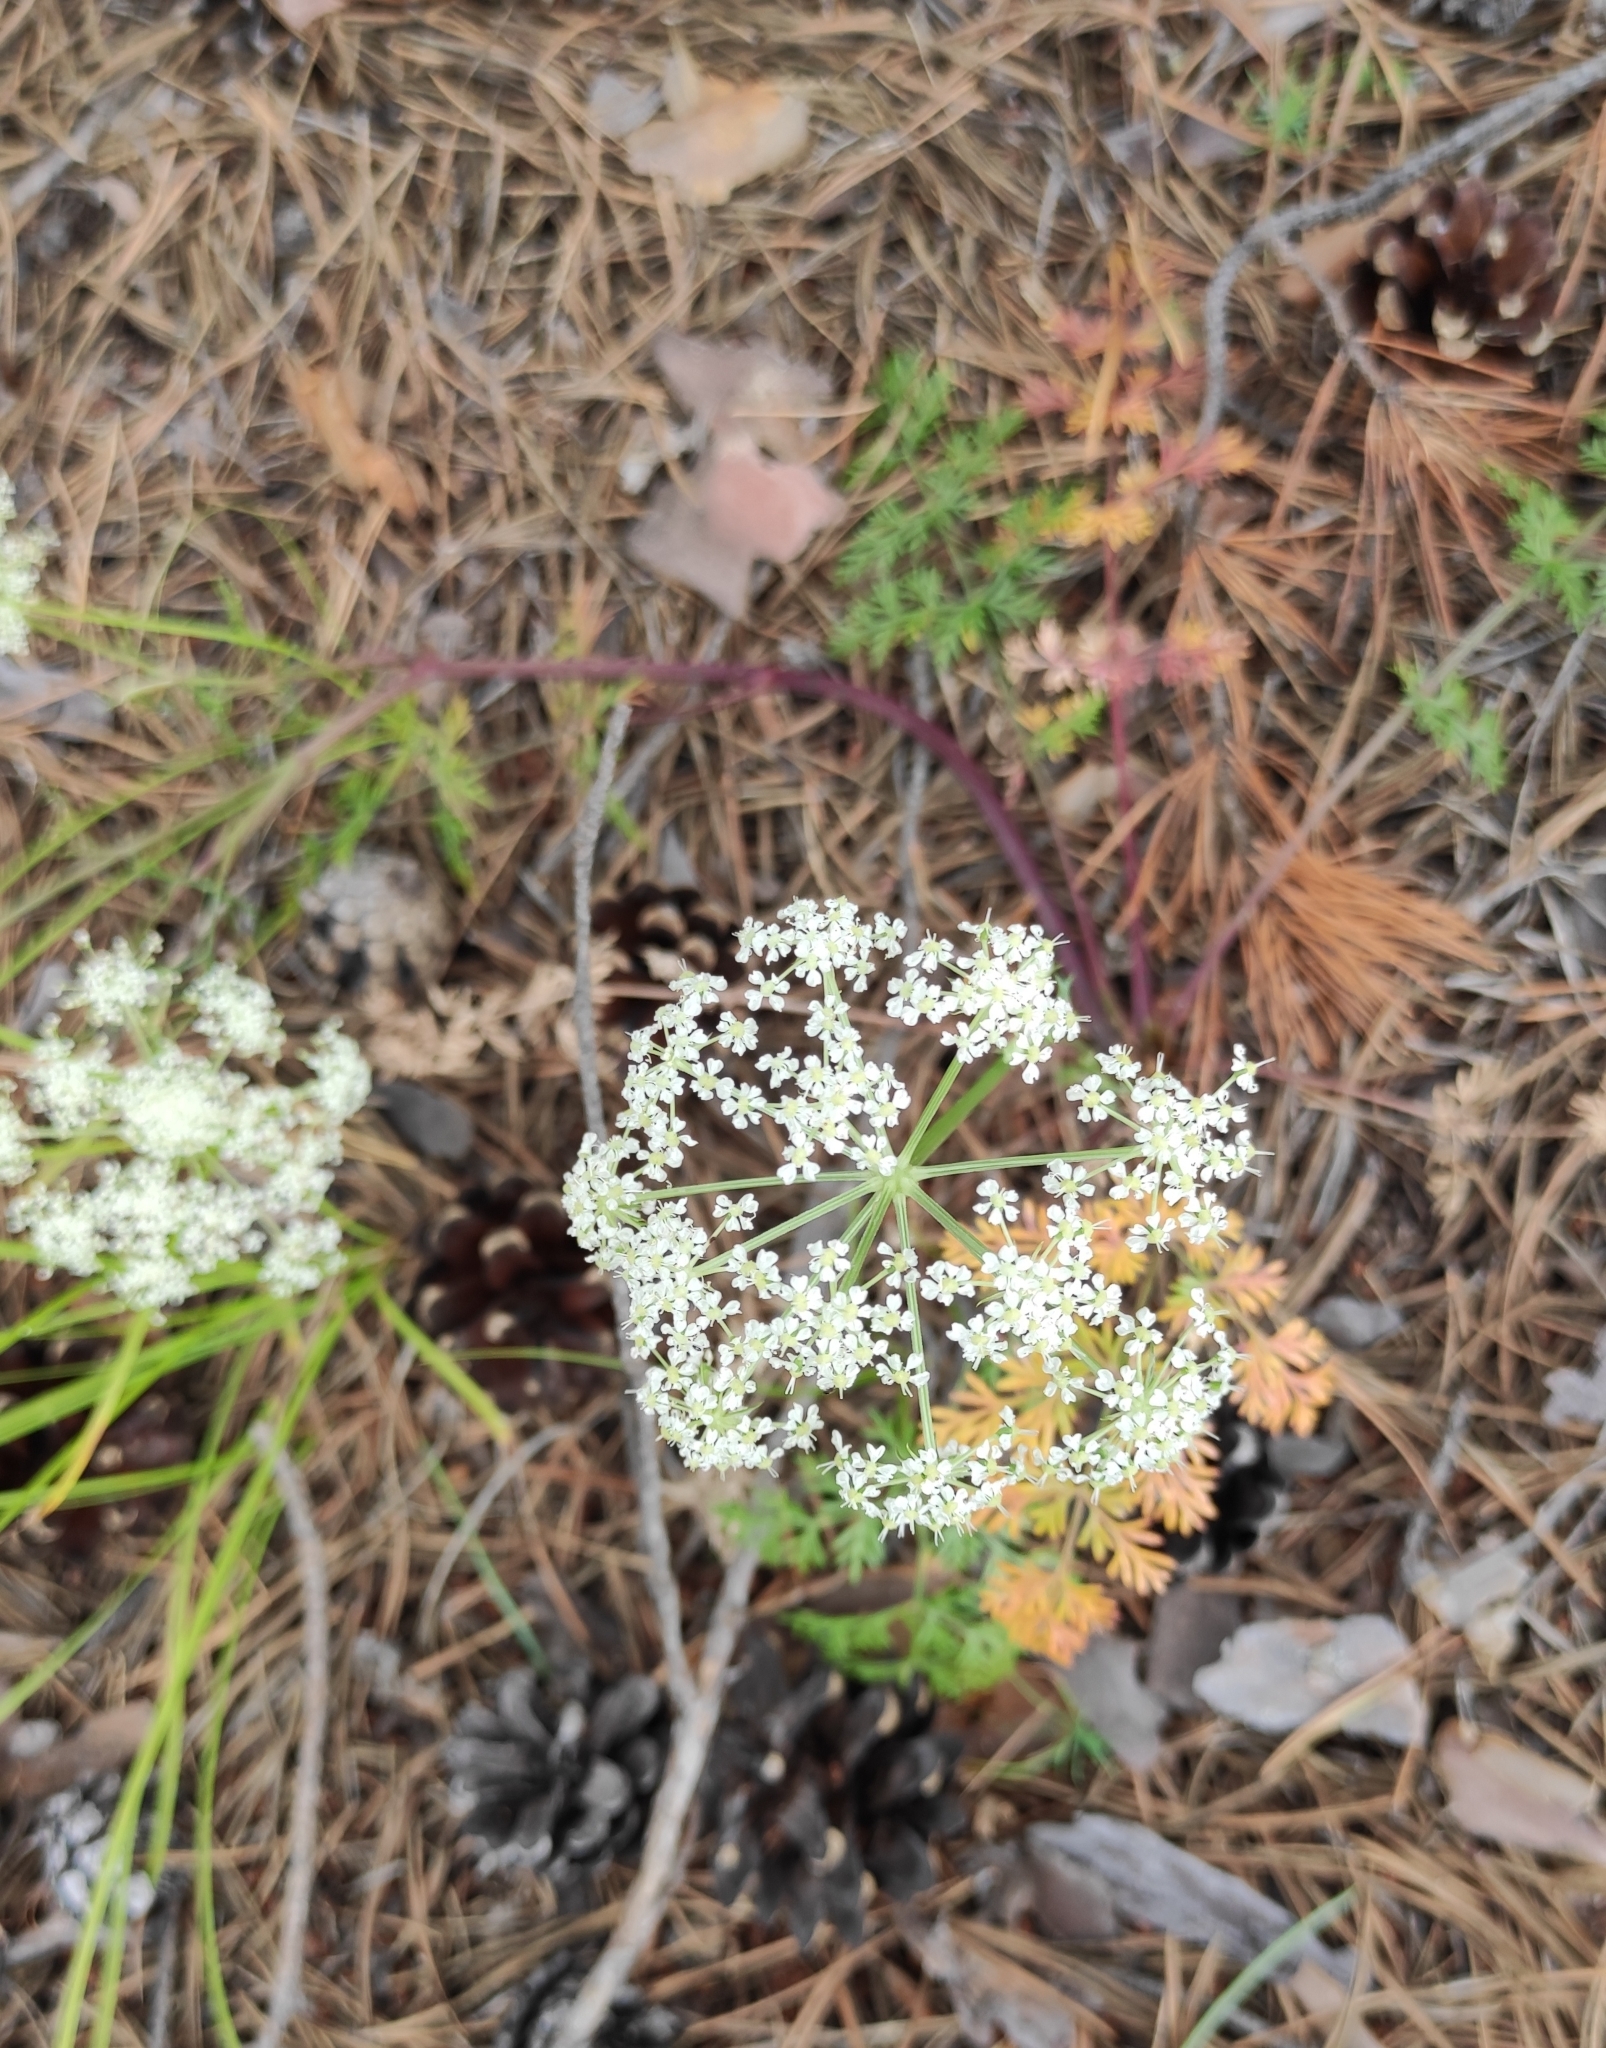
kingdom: Plantae
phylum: Tracheophyta
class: Magnoliopsida
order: Apiales
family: Apiaceae
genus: Kitagawia
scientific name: Kitagawia baicalensis
